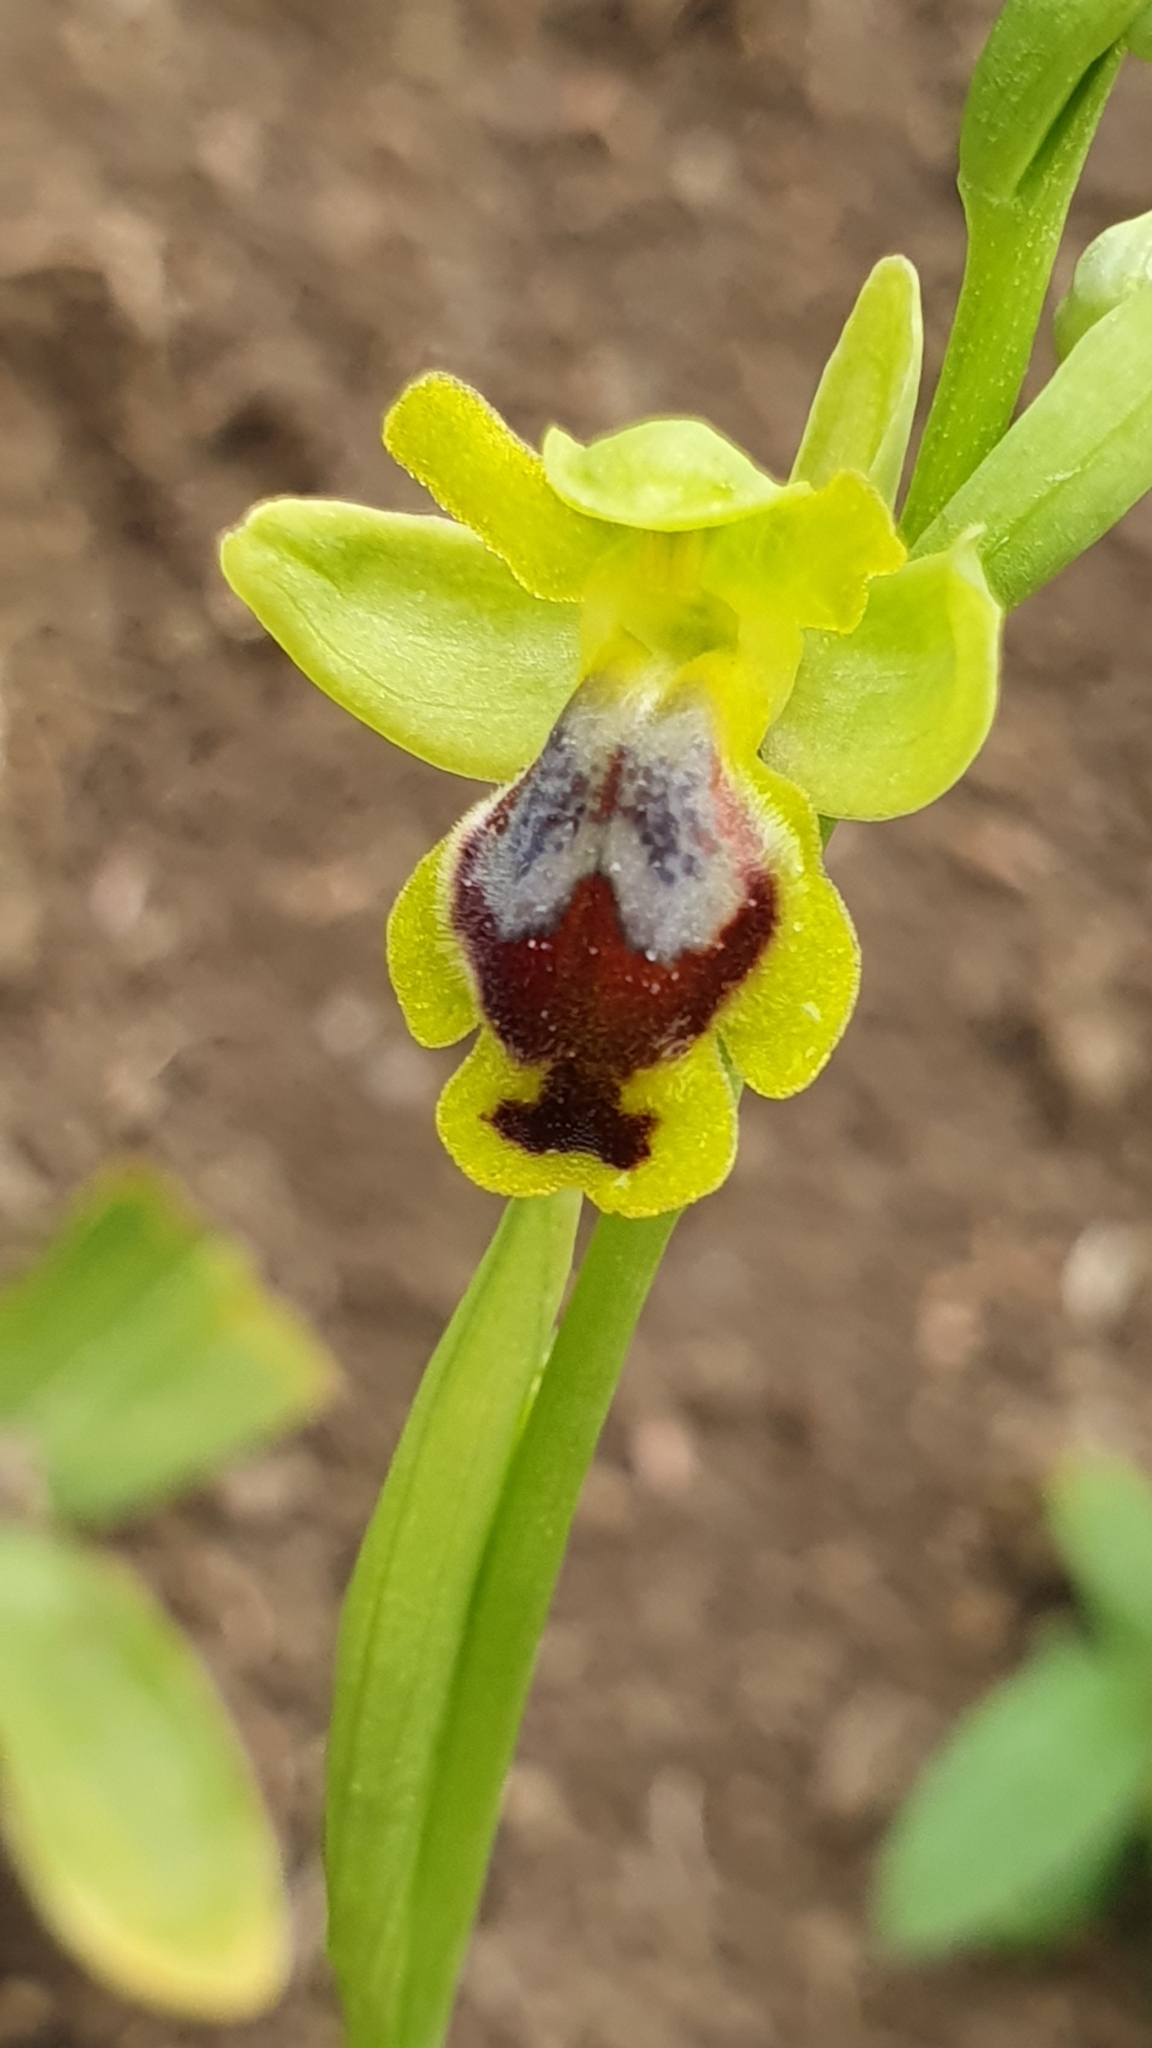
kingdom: Plantae
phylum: Tracheophyta
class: Liliopsida
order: Asparagales
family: Orchidaceae
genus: Ophrys
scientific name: Ophrys battandieri
